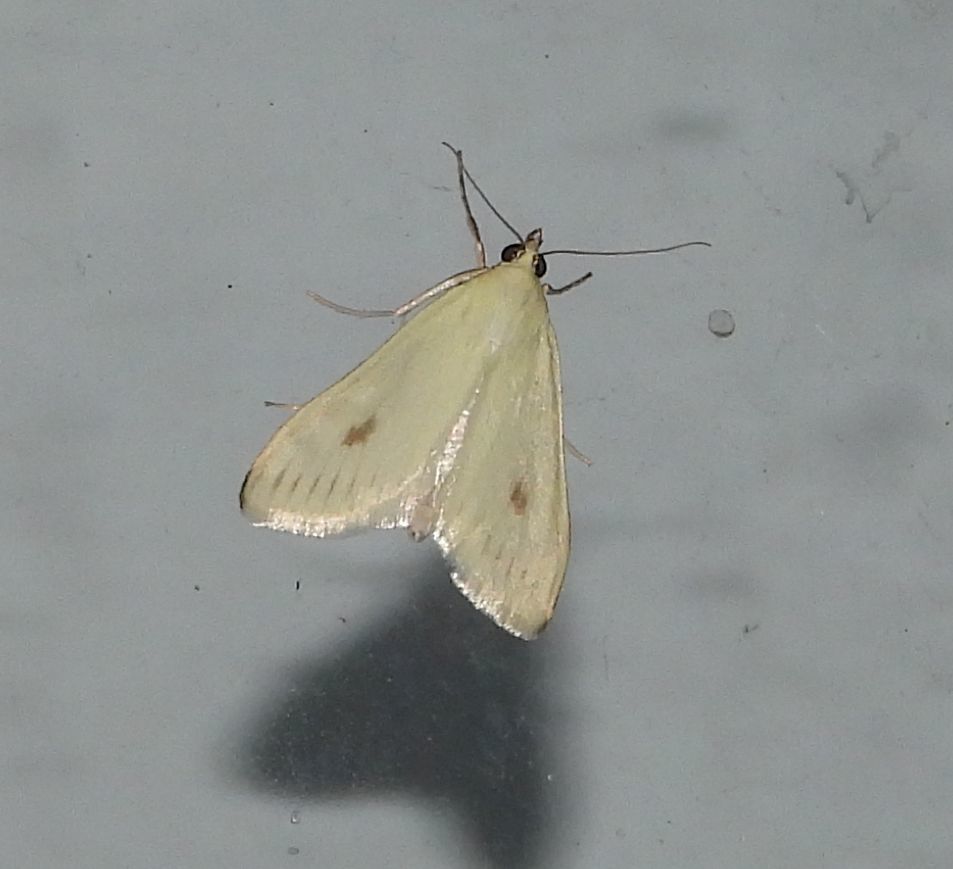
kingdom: Animalia
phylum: Arthropoda
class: Insecta
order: Lepidoptera
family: Crambidae
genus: Sitochroa
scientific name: Sitochroa palealis
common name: Greenish-yellow sitochroa moth
